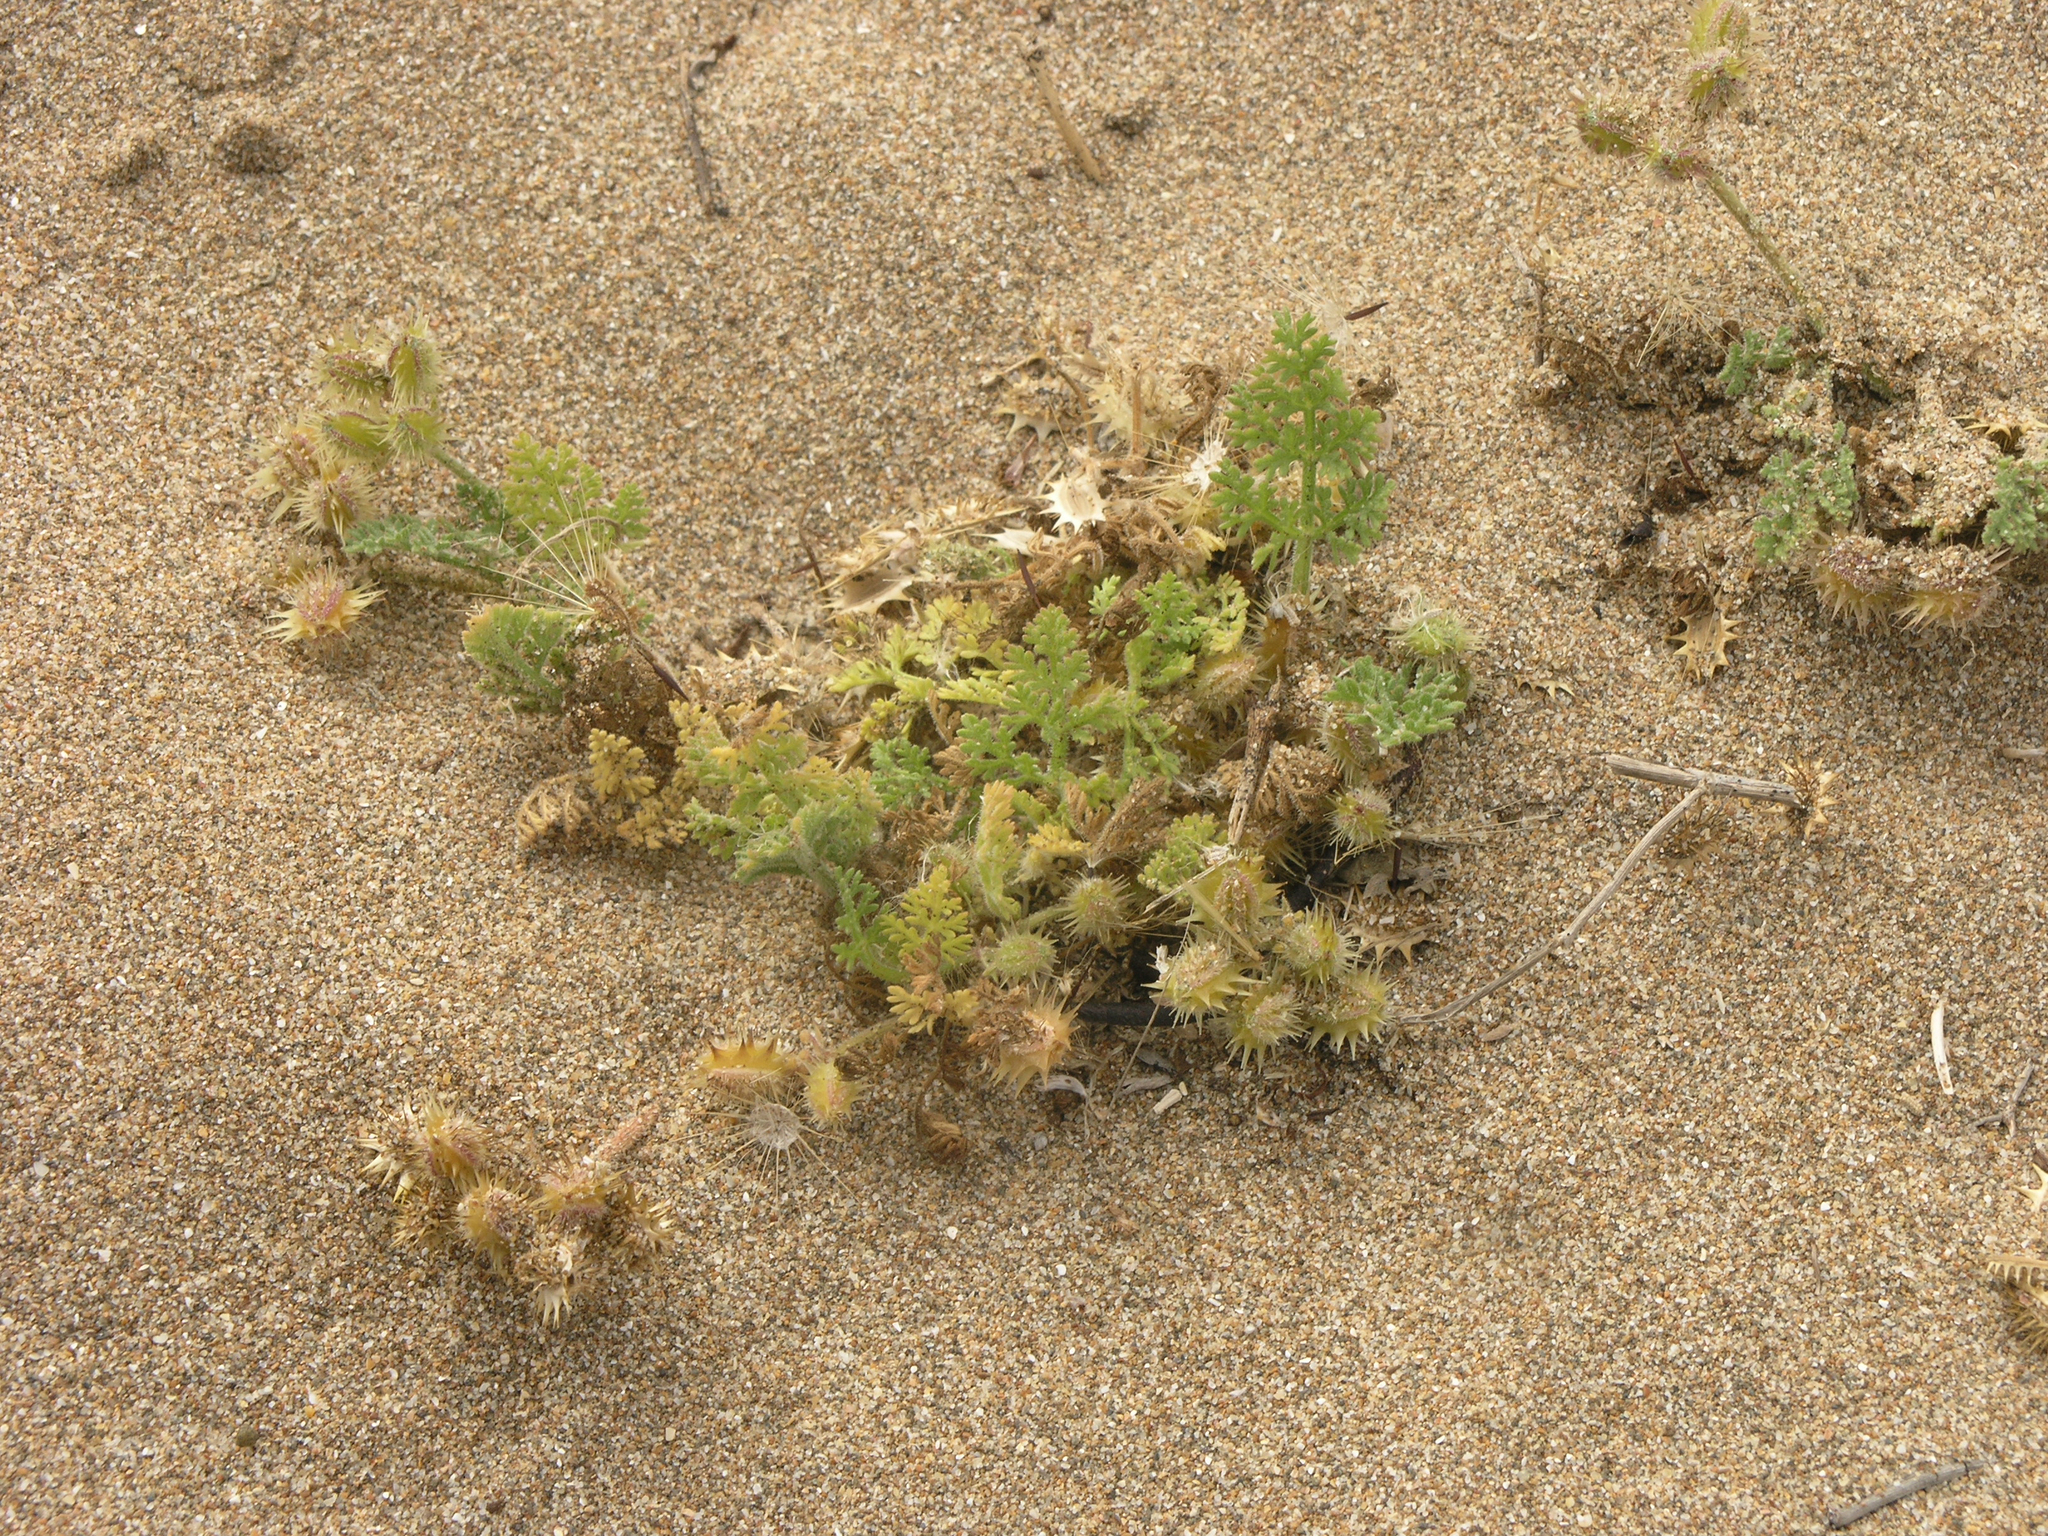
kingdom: Plantae
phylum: Tracheophyta
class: Magnoliopsida
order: Apiales
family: Apiaceae
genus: Daucus
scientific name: Daucus pumilus
